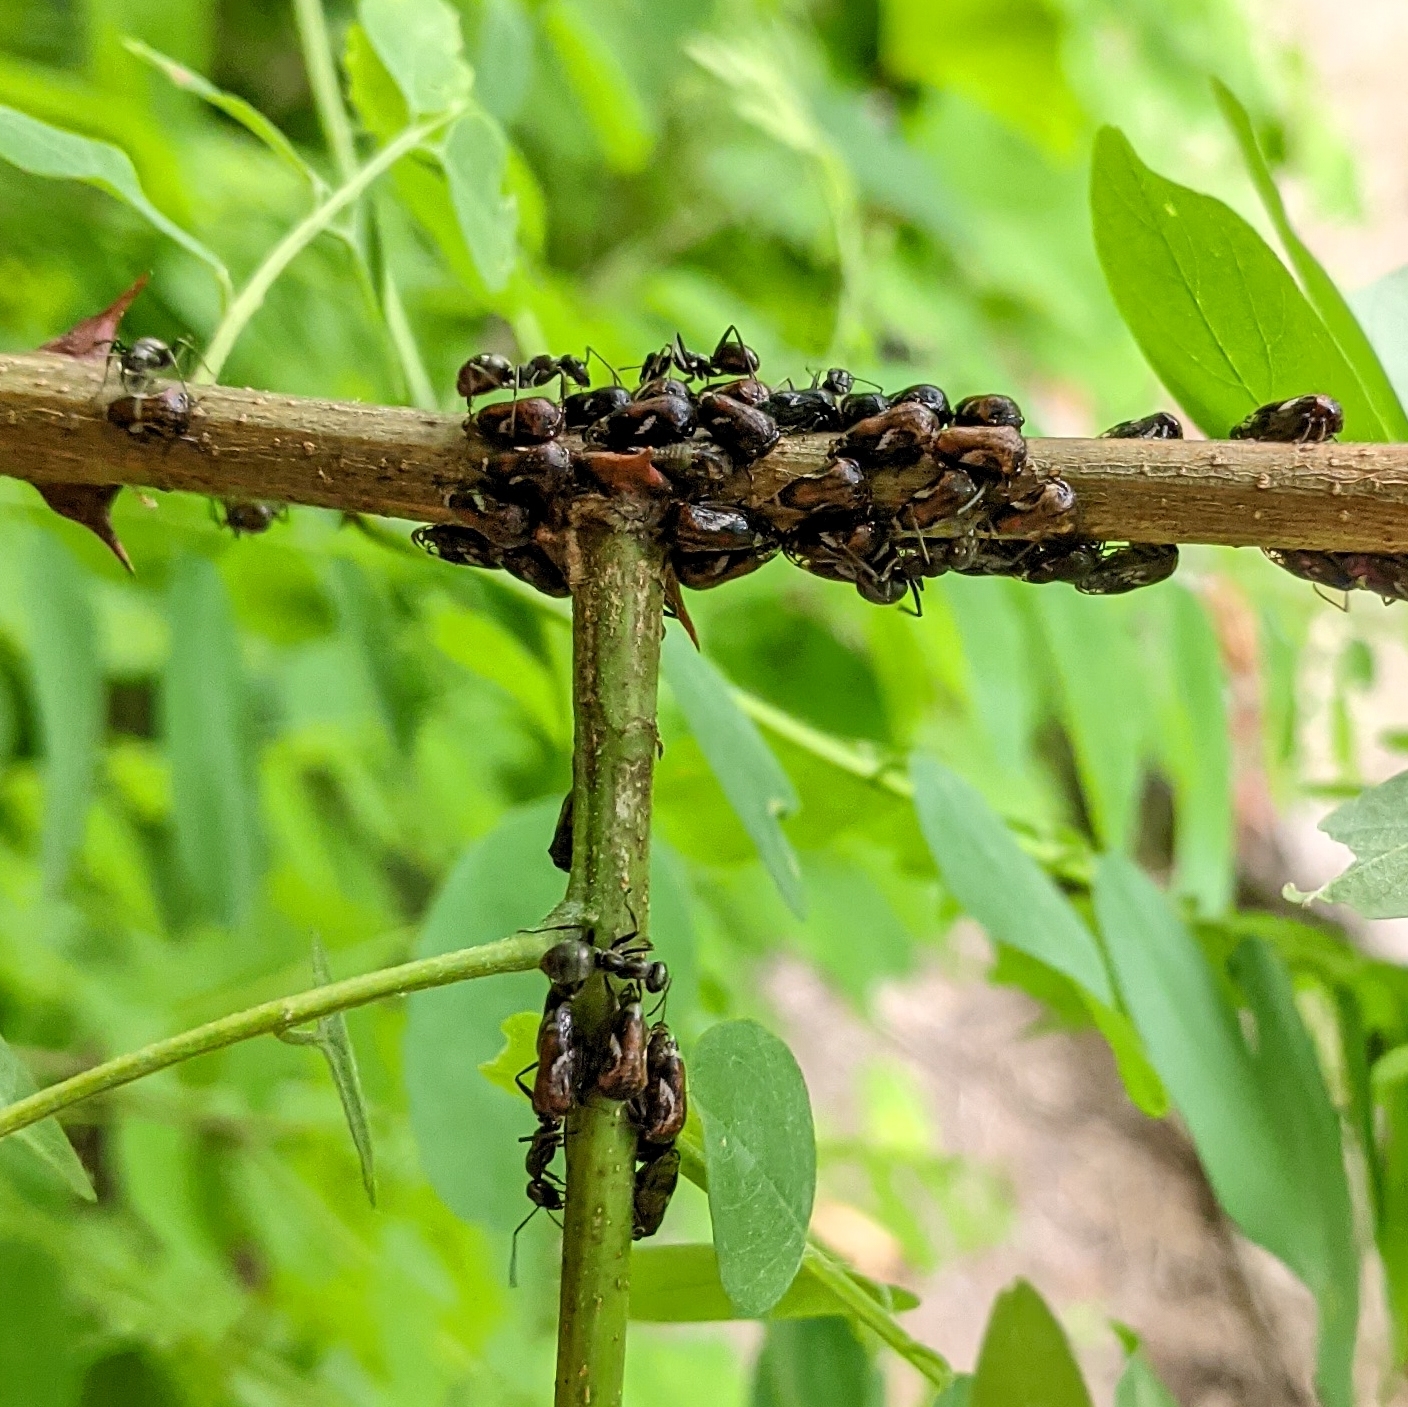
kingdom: Animalia
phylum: Arthropoda
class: Insecta
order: Hemiptera
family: Membracidae
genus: Vanduzea
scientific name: Vanduzea arquata
